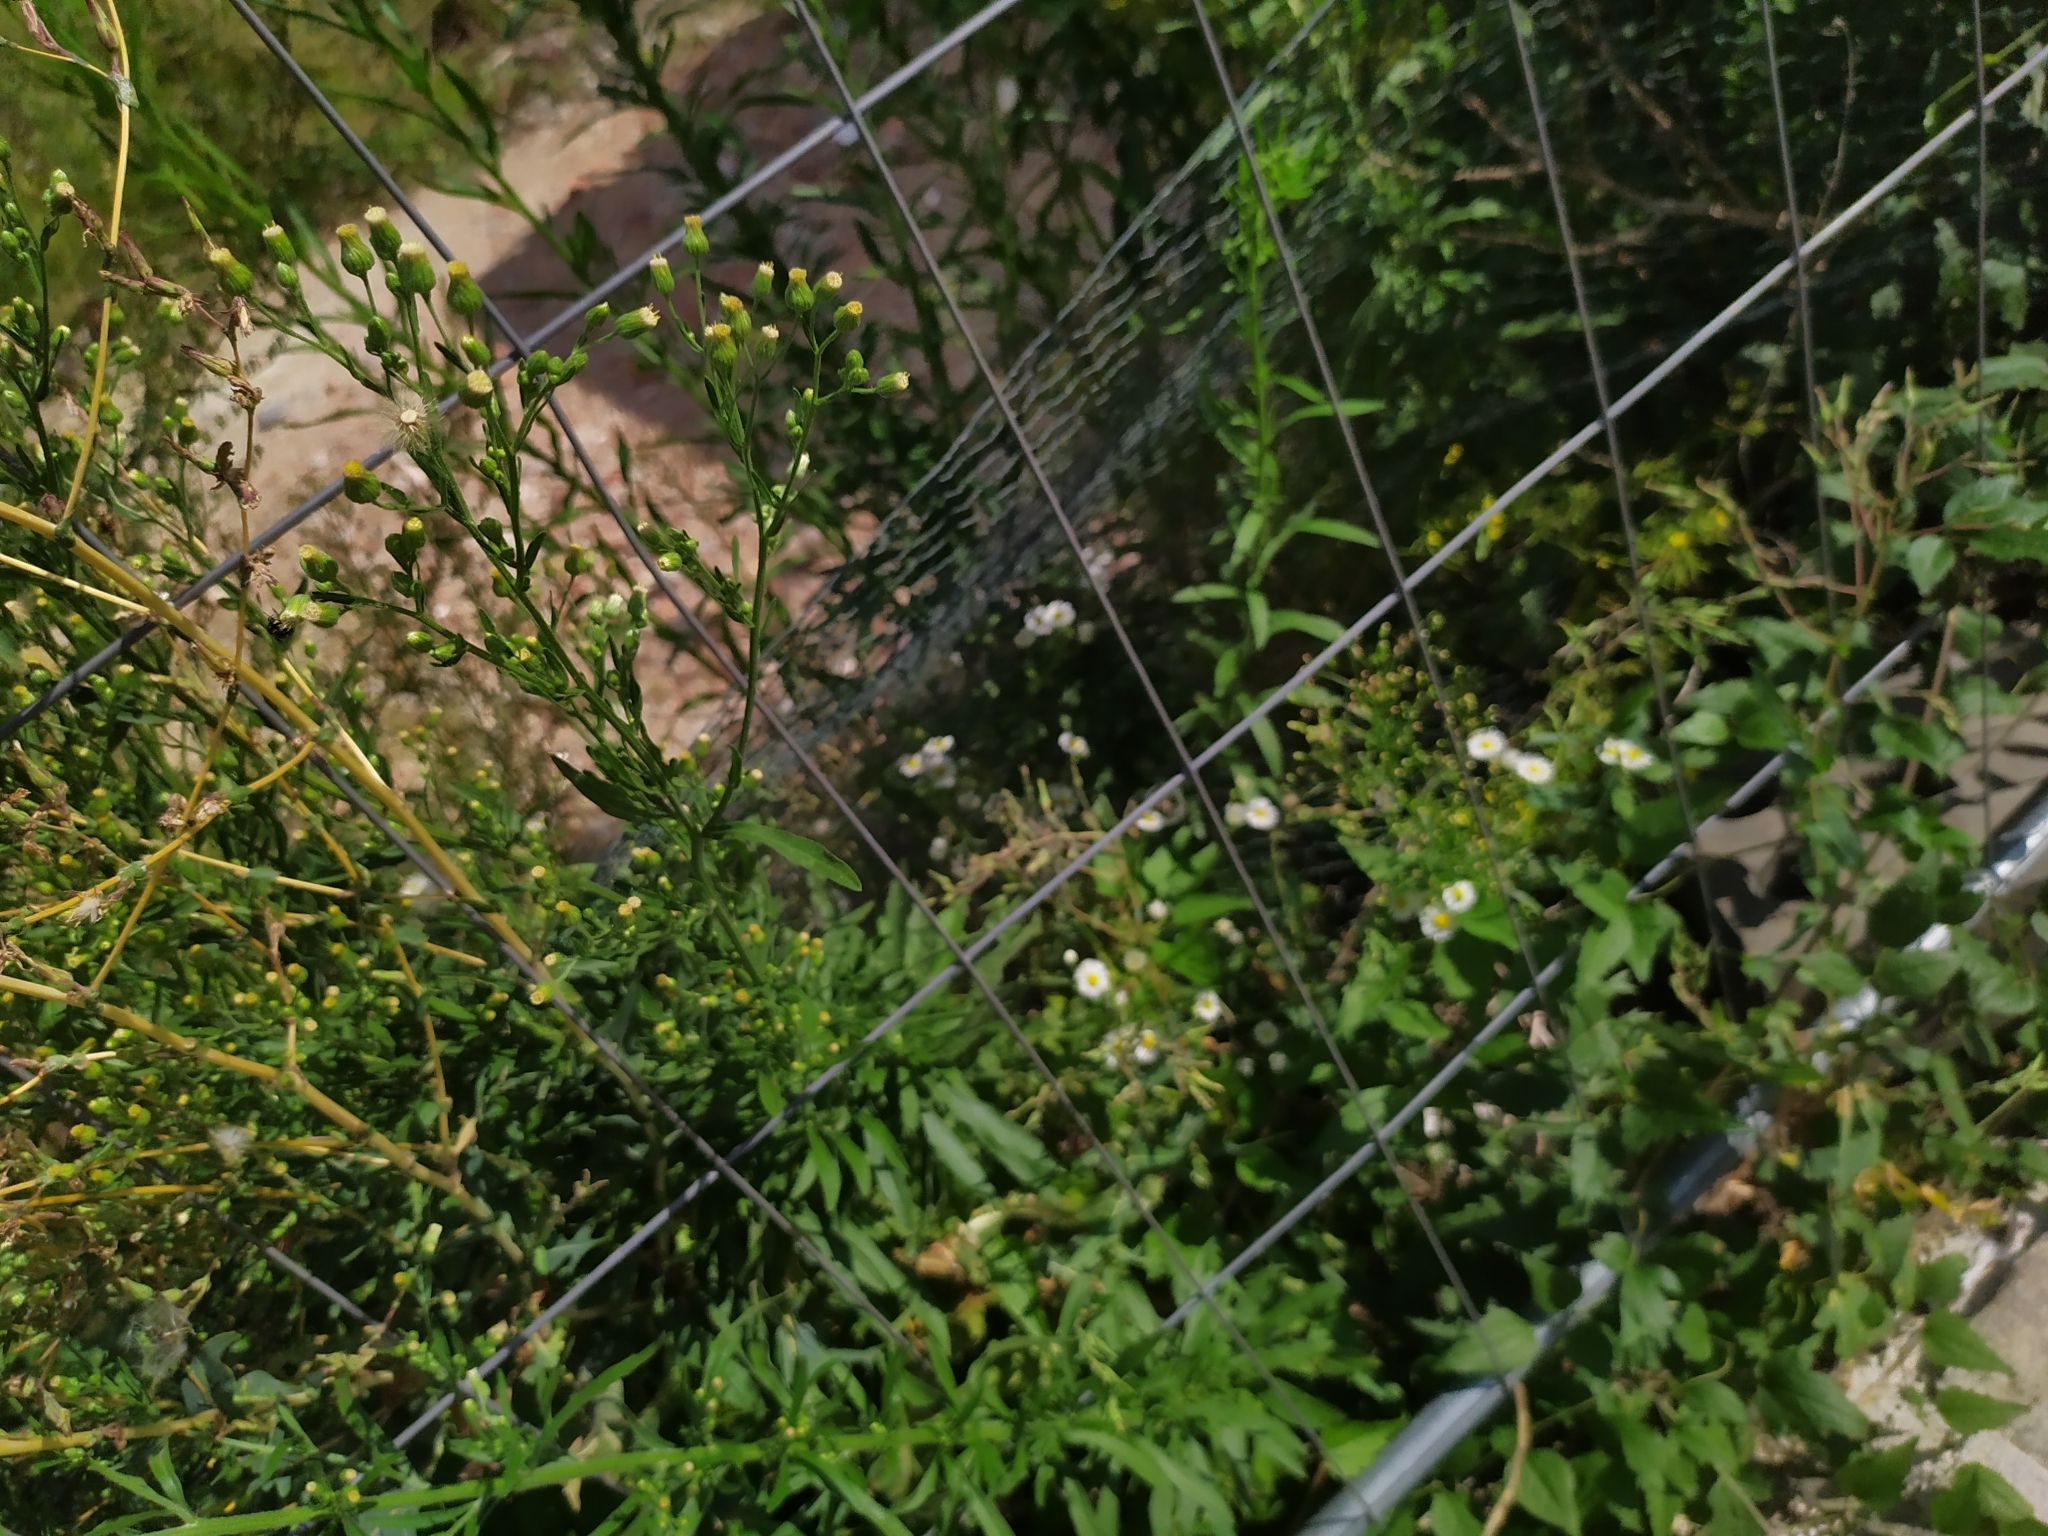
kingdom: Plantae
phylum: Tracheophyta
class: Magnoliopsida
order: Asterales
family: Asteraceae
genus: Erigeron
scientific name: Erigeron sumatrensis
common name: Daisy
